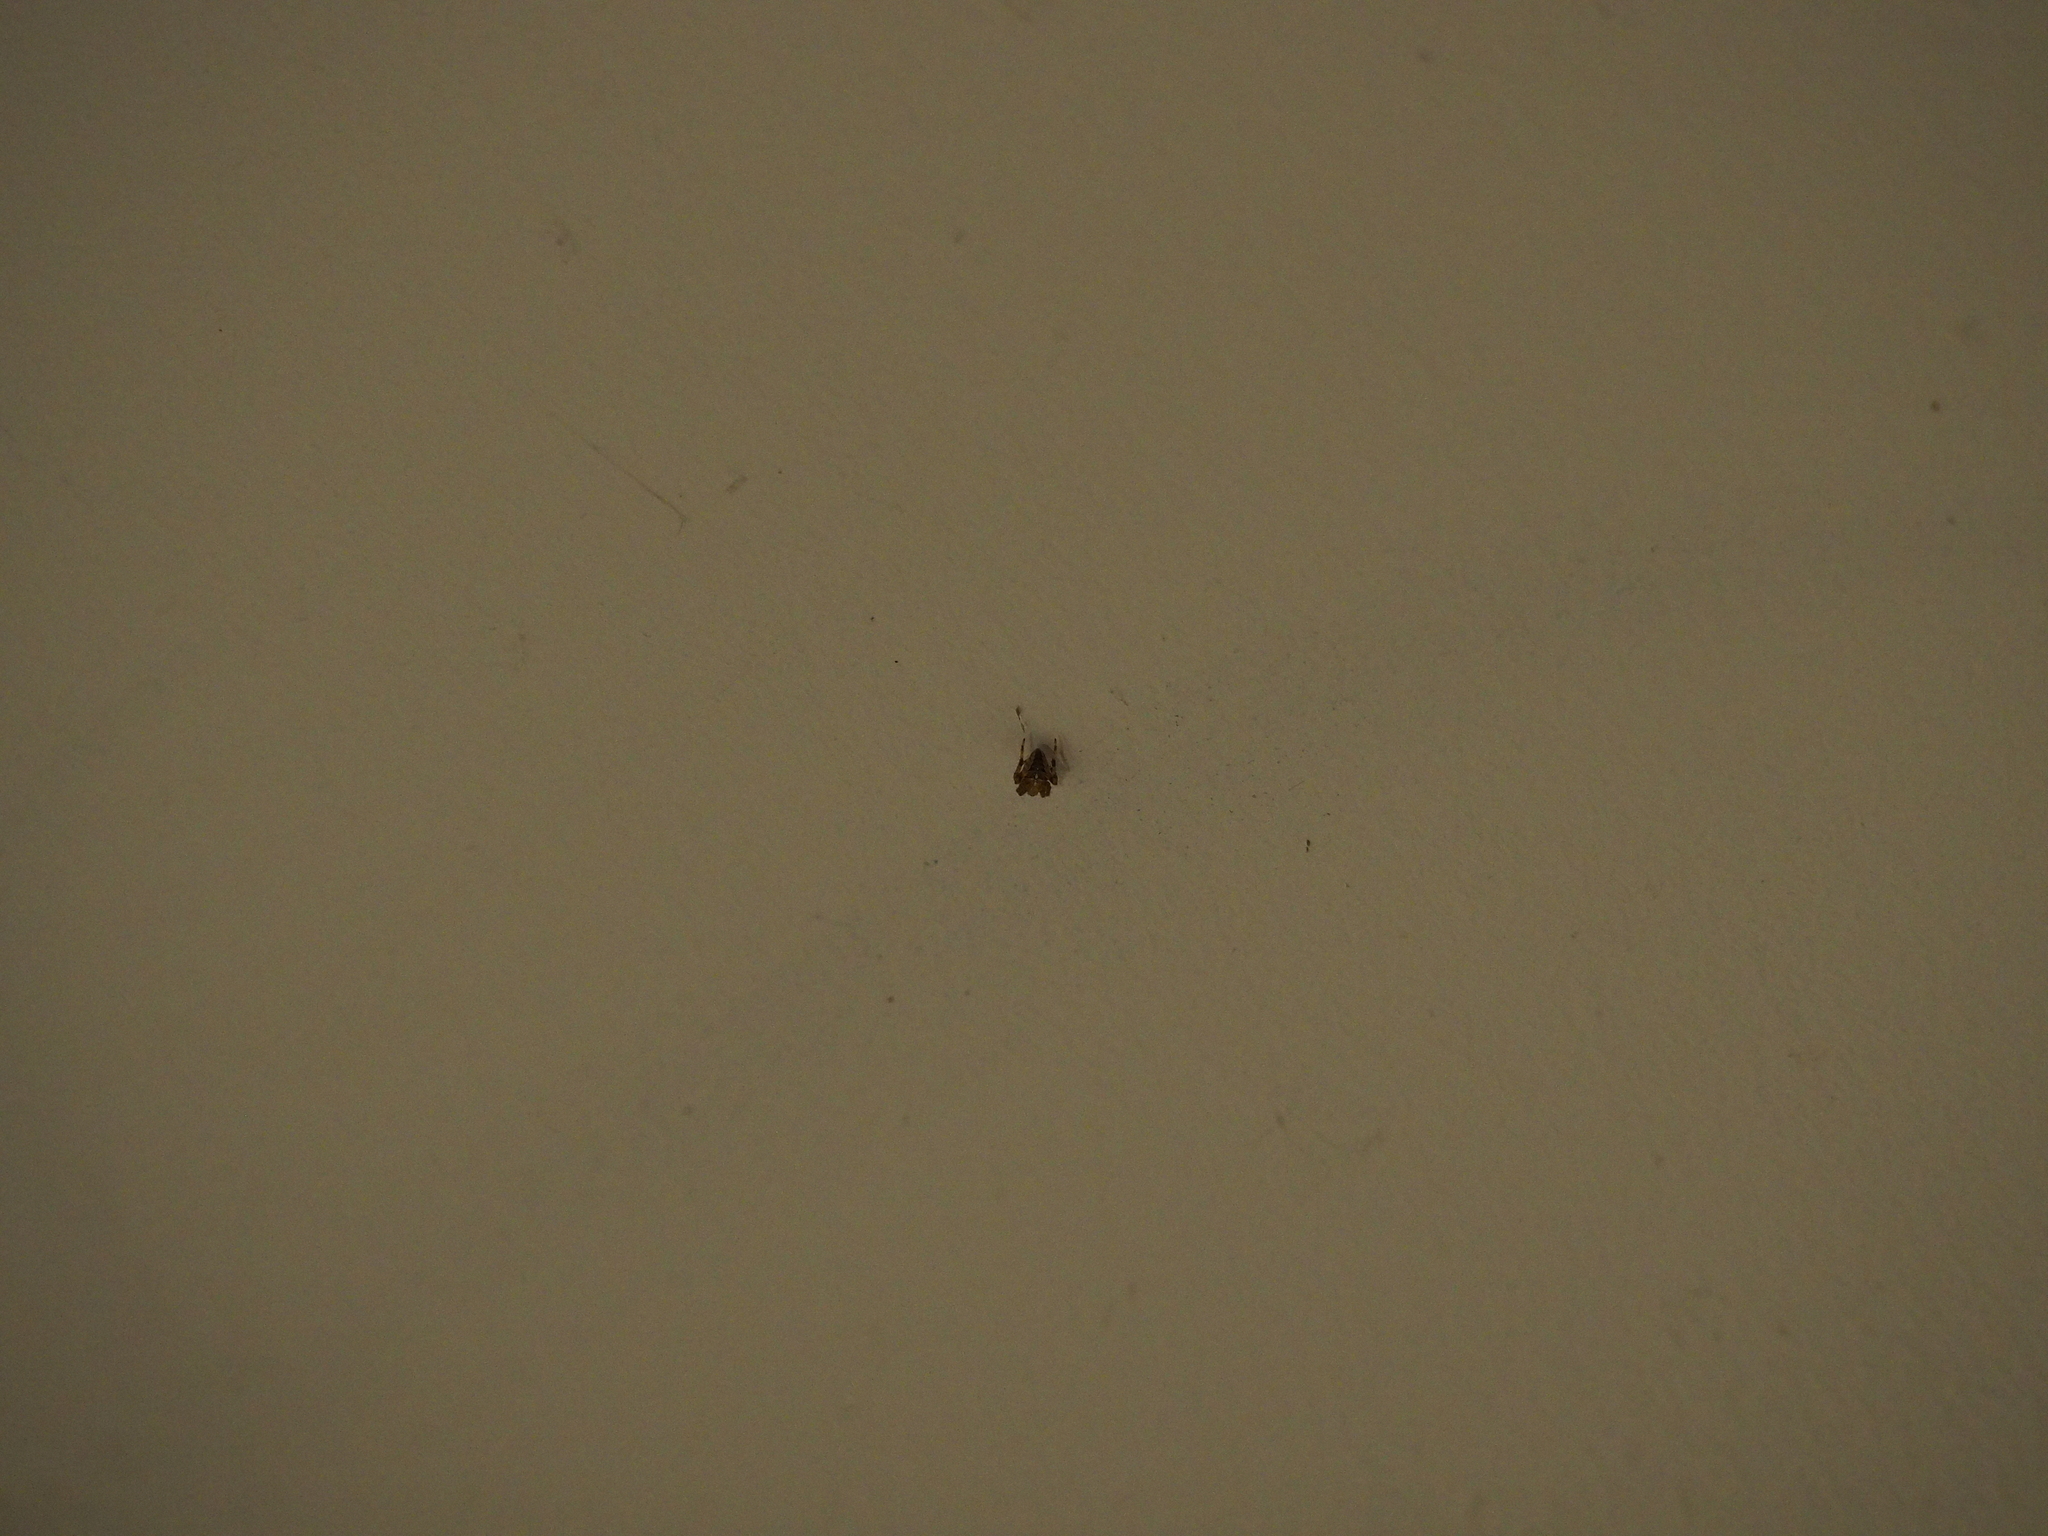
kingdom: Animalia
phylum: Arthropoda
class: Arachnida
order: Araneae
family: Araneidae
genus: Araneus
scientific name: Araneus diadematus
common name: Cross orbweaver
